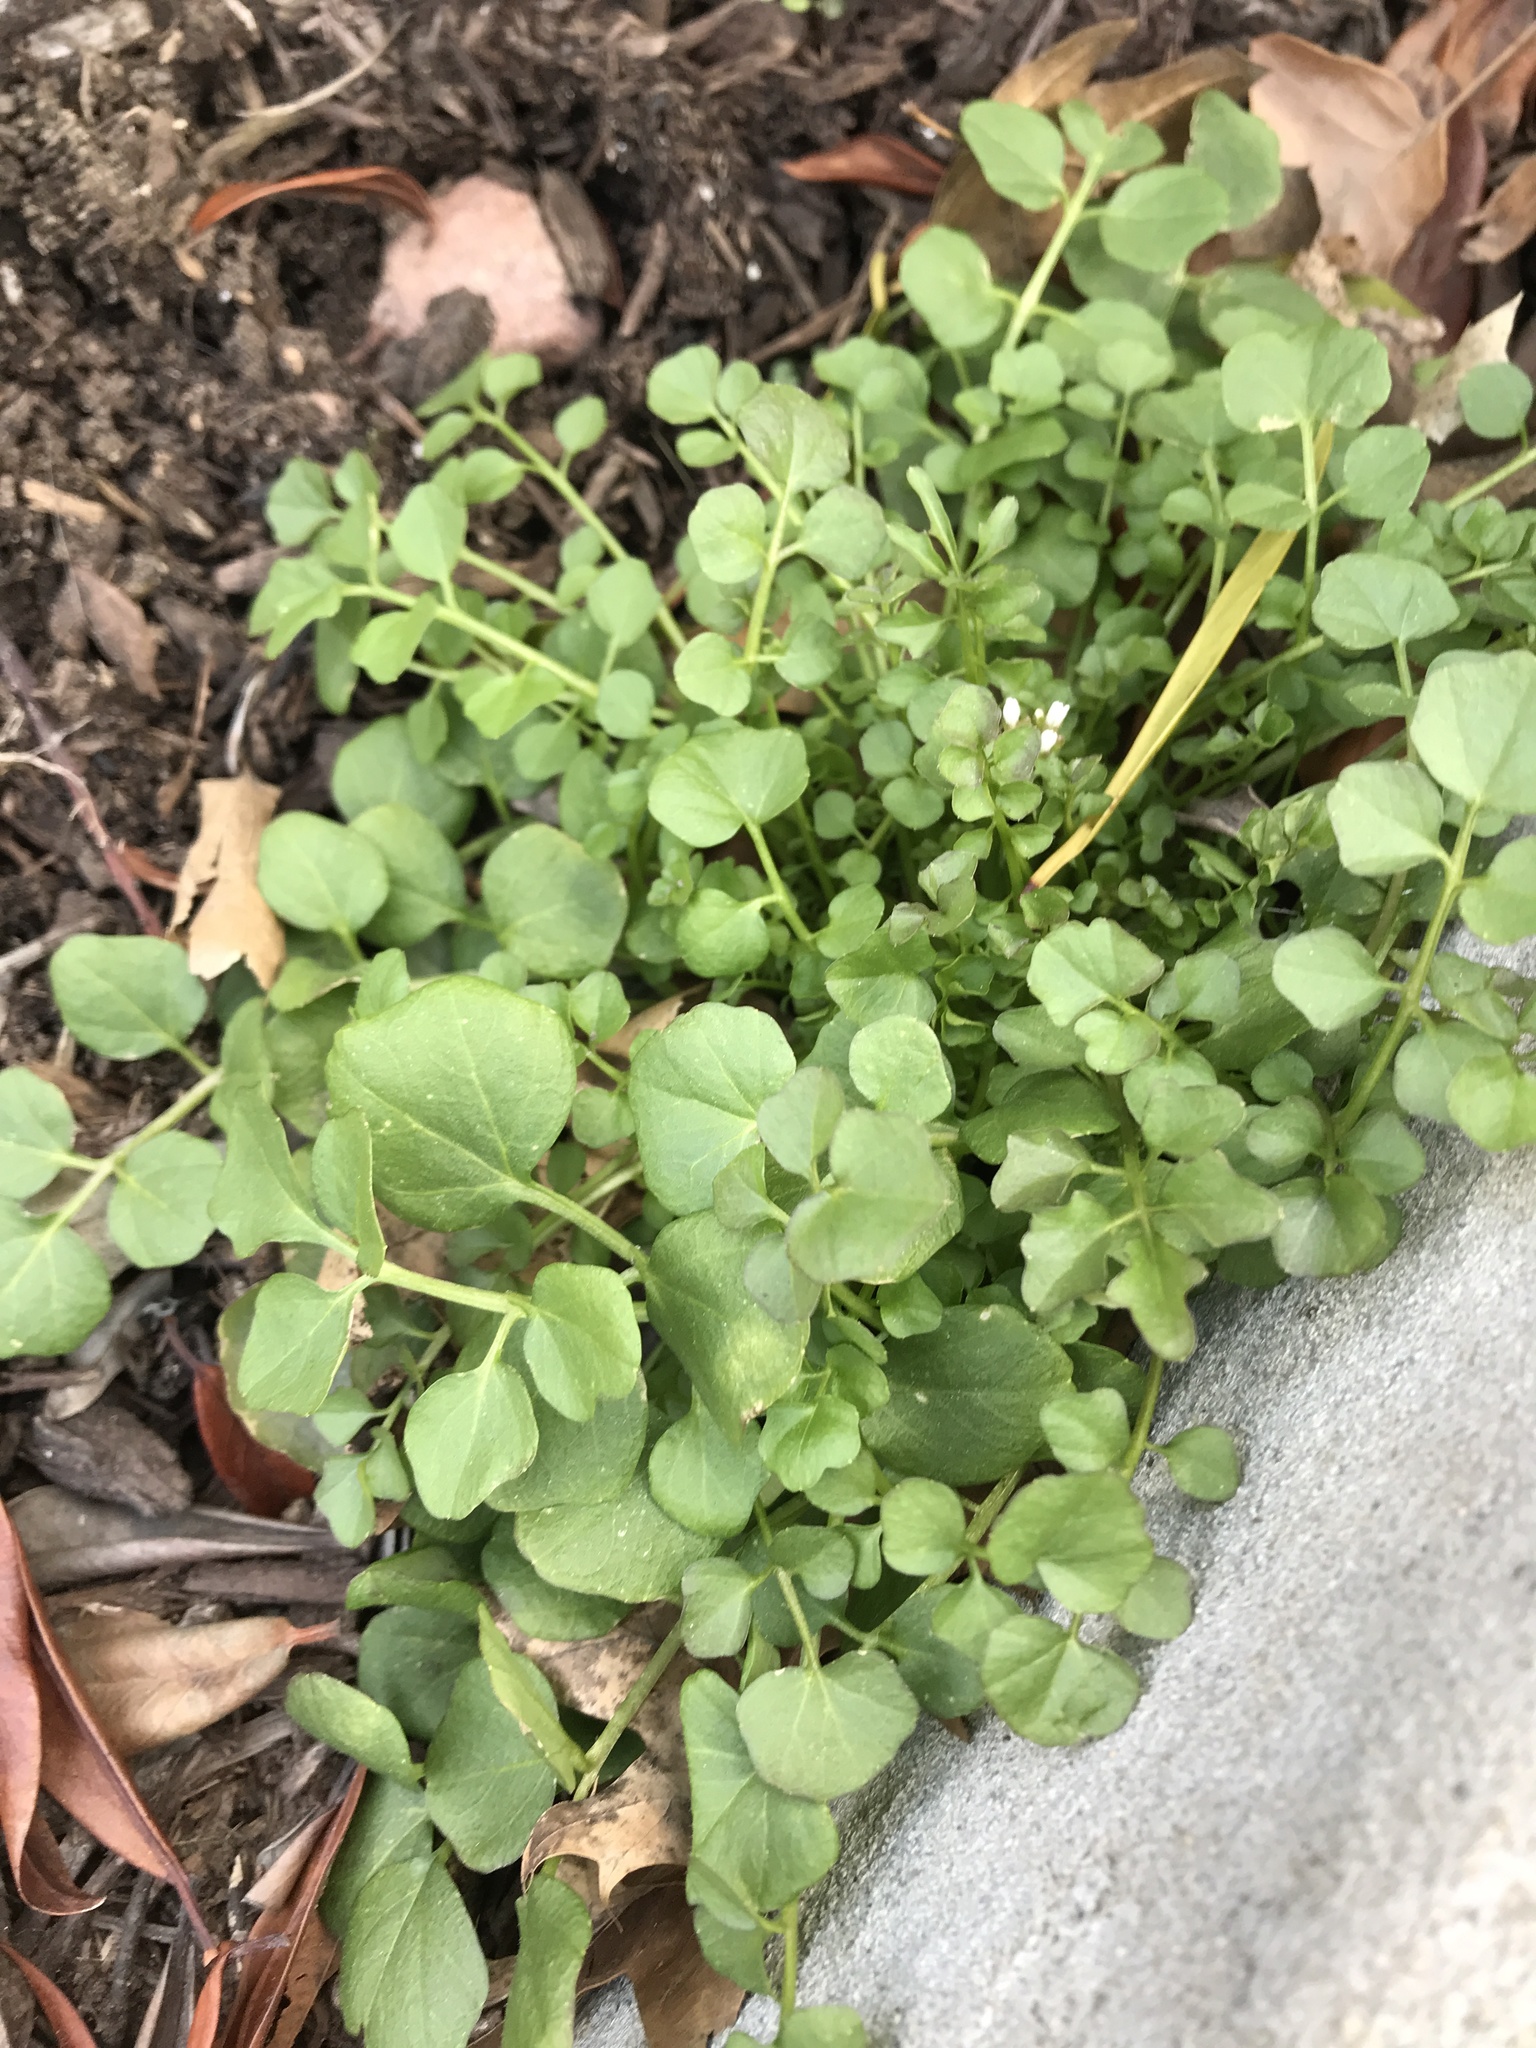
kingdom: Plantae
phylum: Tracheophyta
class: Magnoliopsida
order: Brassicales
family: Brassicaceae
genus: Cardamine
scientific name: Cardamine hirsuta
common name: Hairy bittercress
